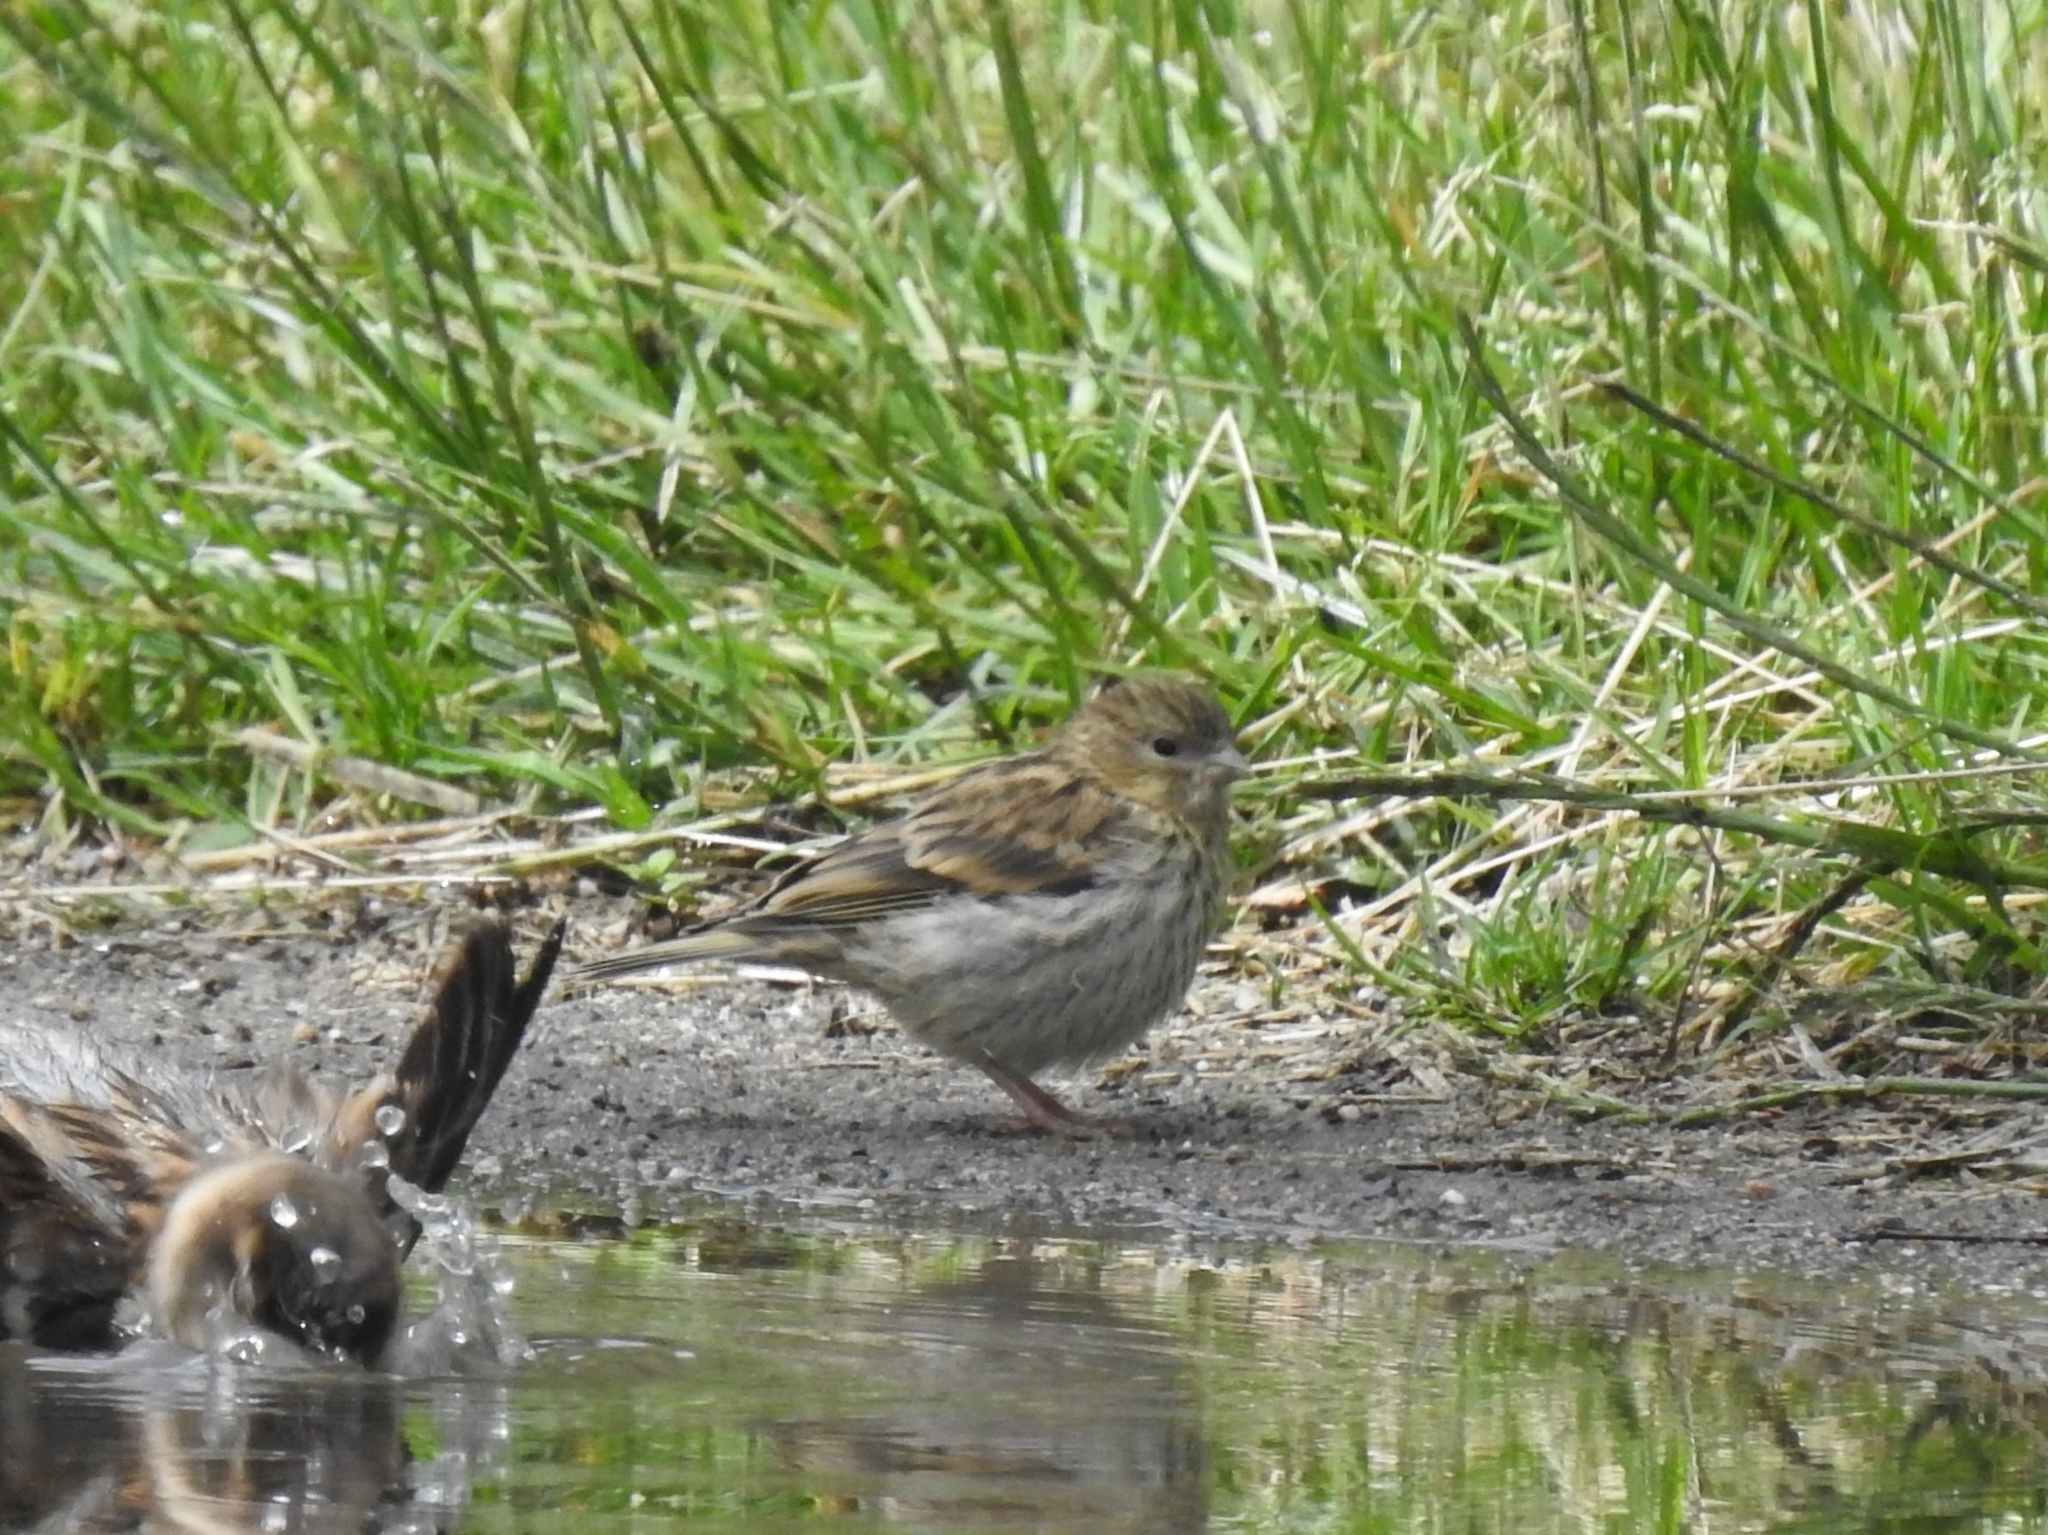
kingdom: Animalia
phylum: Chordata
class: Aves
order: Passeriformes
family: Fringillidae
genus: Serinus
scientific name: Serinus serinus
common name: European serin
